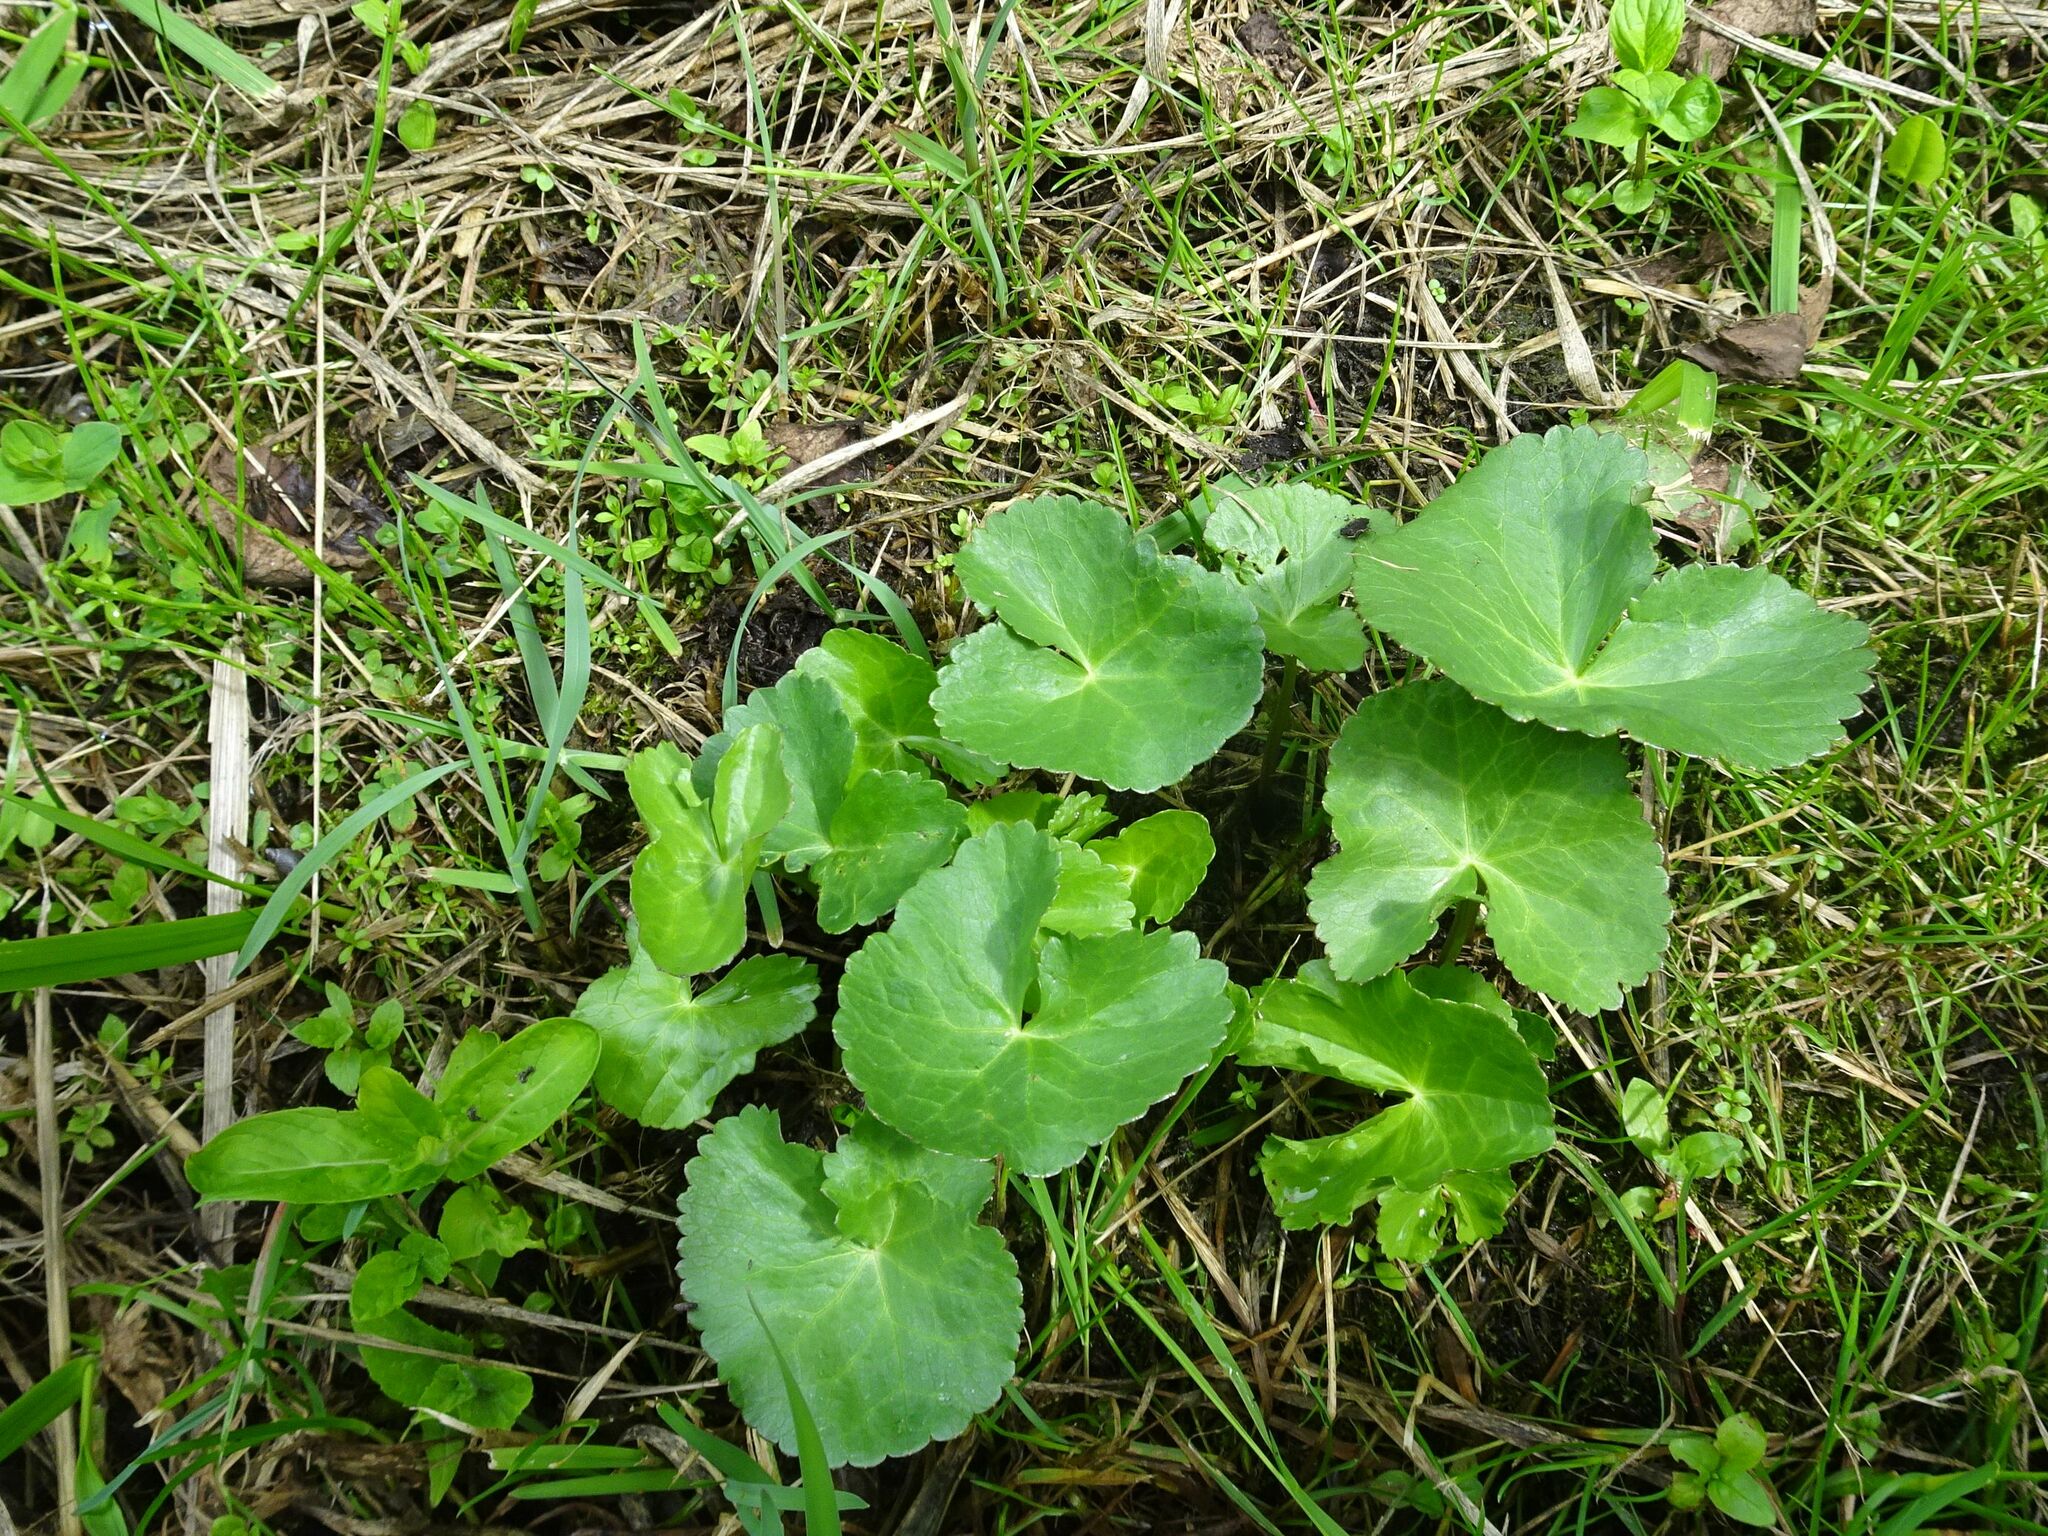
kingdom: Plantae
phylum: Tracheophyta
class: Magnoliopsida
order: Ranunculales
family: Ranunculaceae
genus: Caltha
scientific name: Caltha palustris
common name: Marsh marigold
